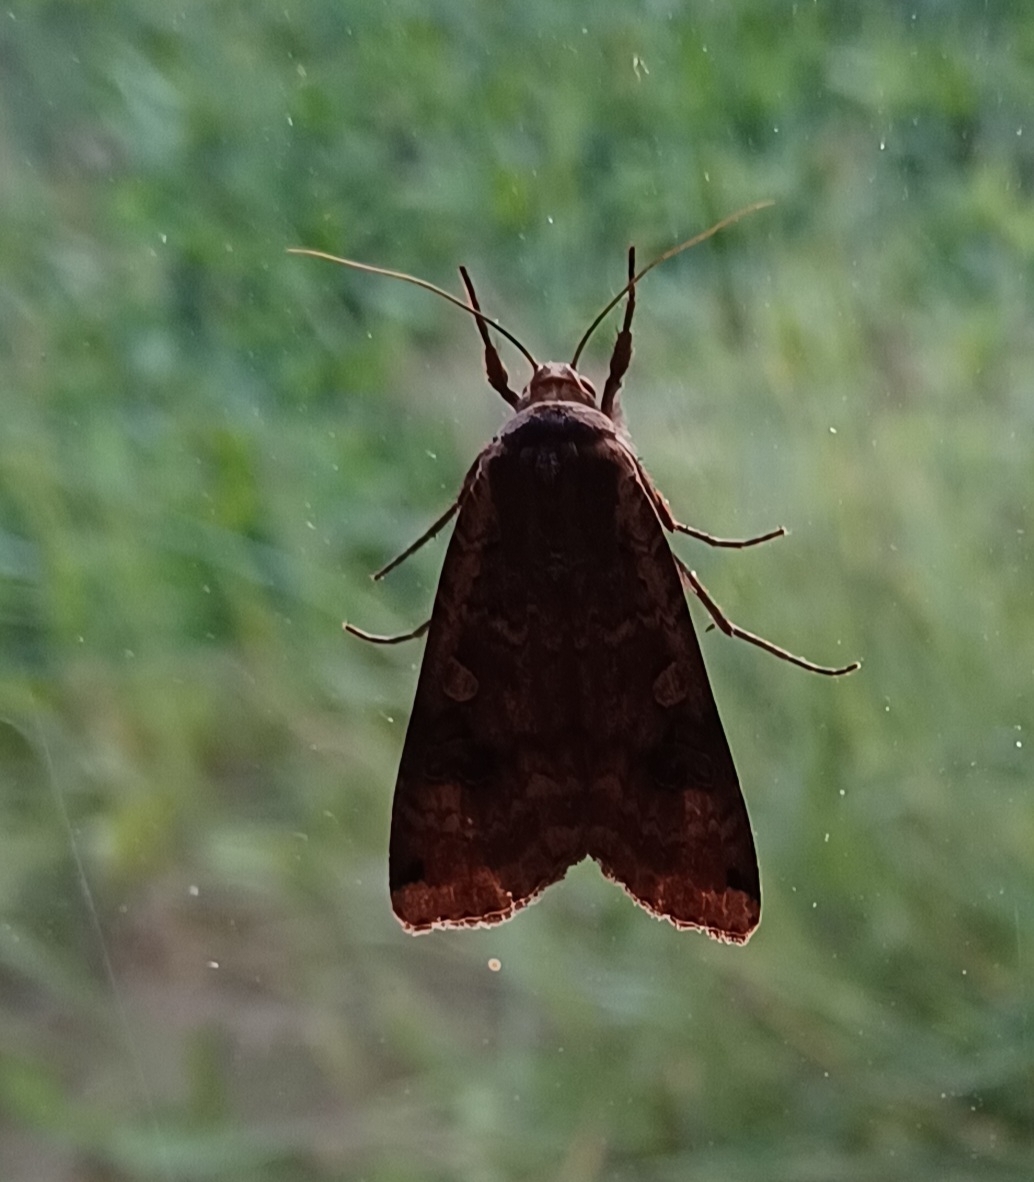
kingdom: Animalia
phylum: Arthropoda
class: Insecta
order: Lepidoptera
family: Noctuidae
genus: Noctua
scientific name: Noctua pronuba
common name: Large yellow underwing
